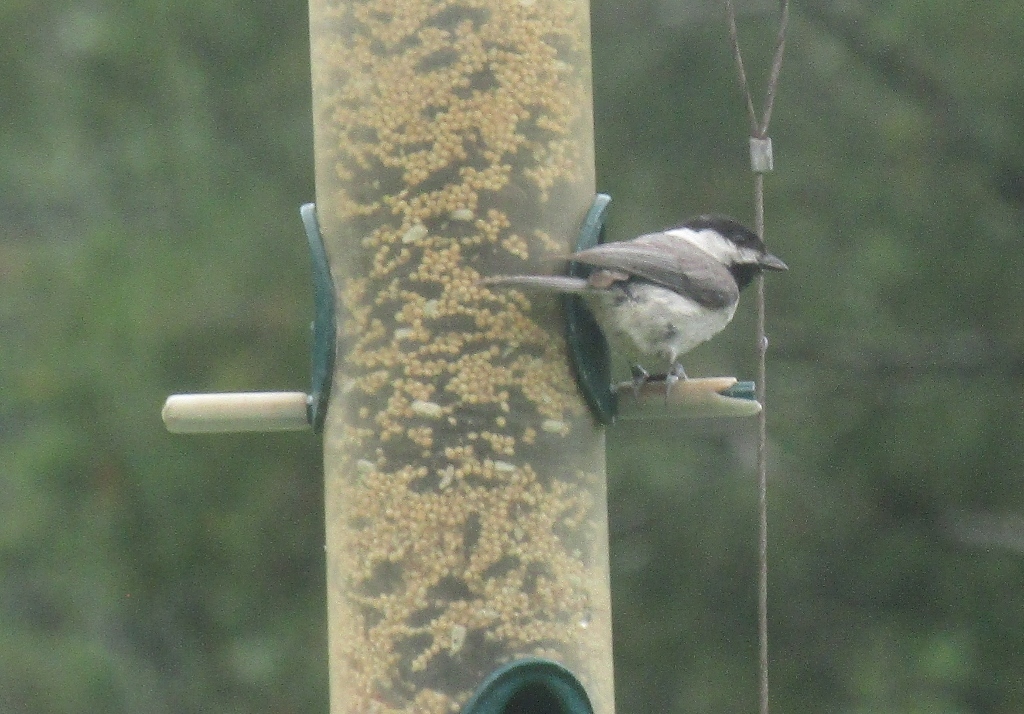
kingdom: Animalia
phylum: Chordata
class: Aves
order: Passeriformes
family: Paridae
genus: Poecile
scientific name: Poecile carolinensis
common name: Carolina chickadee
